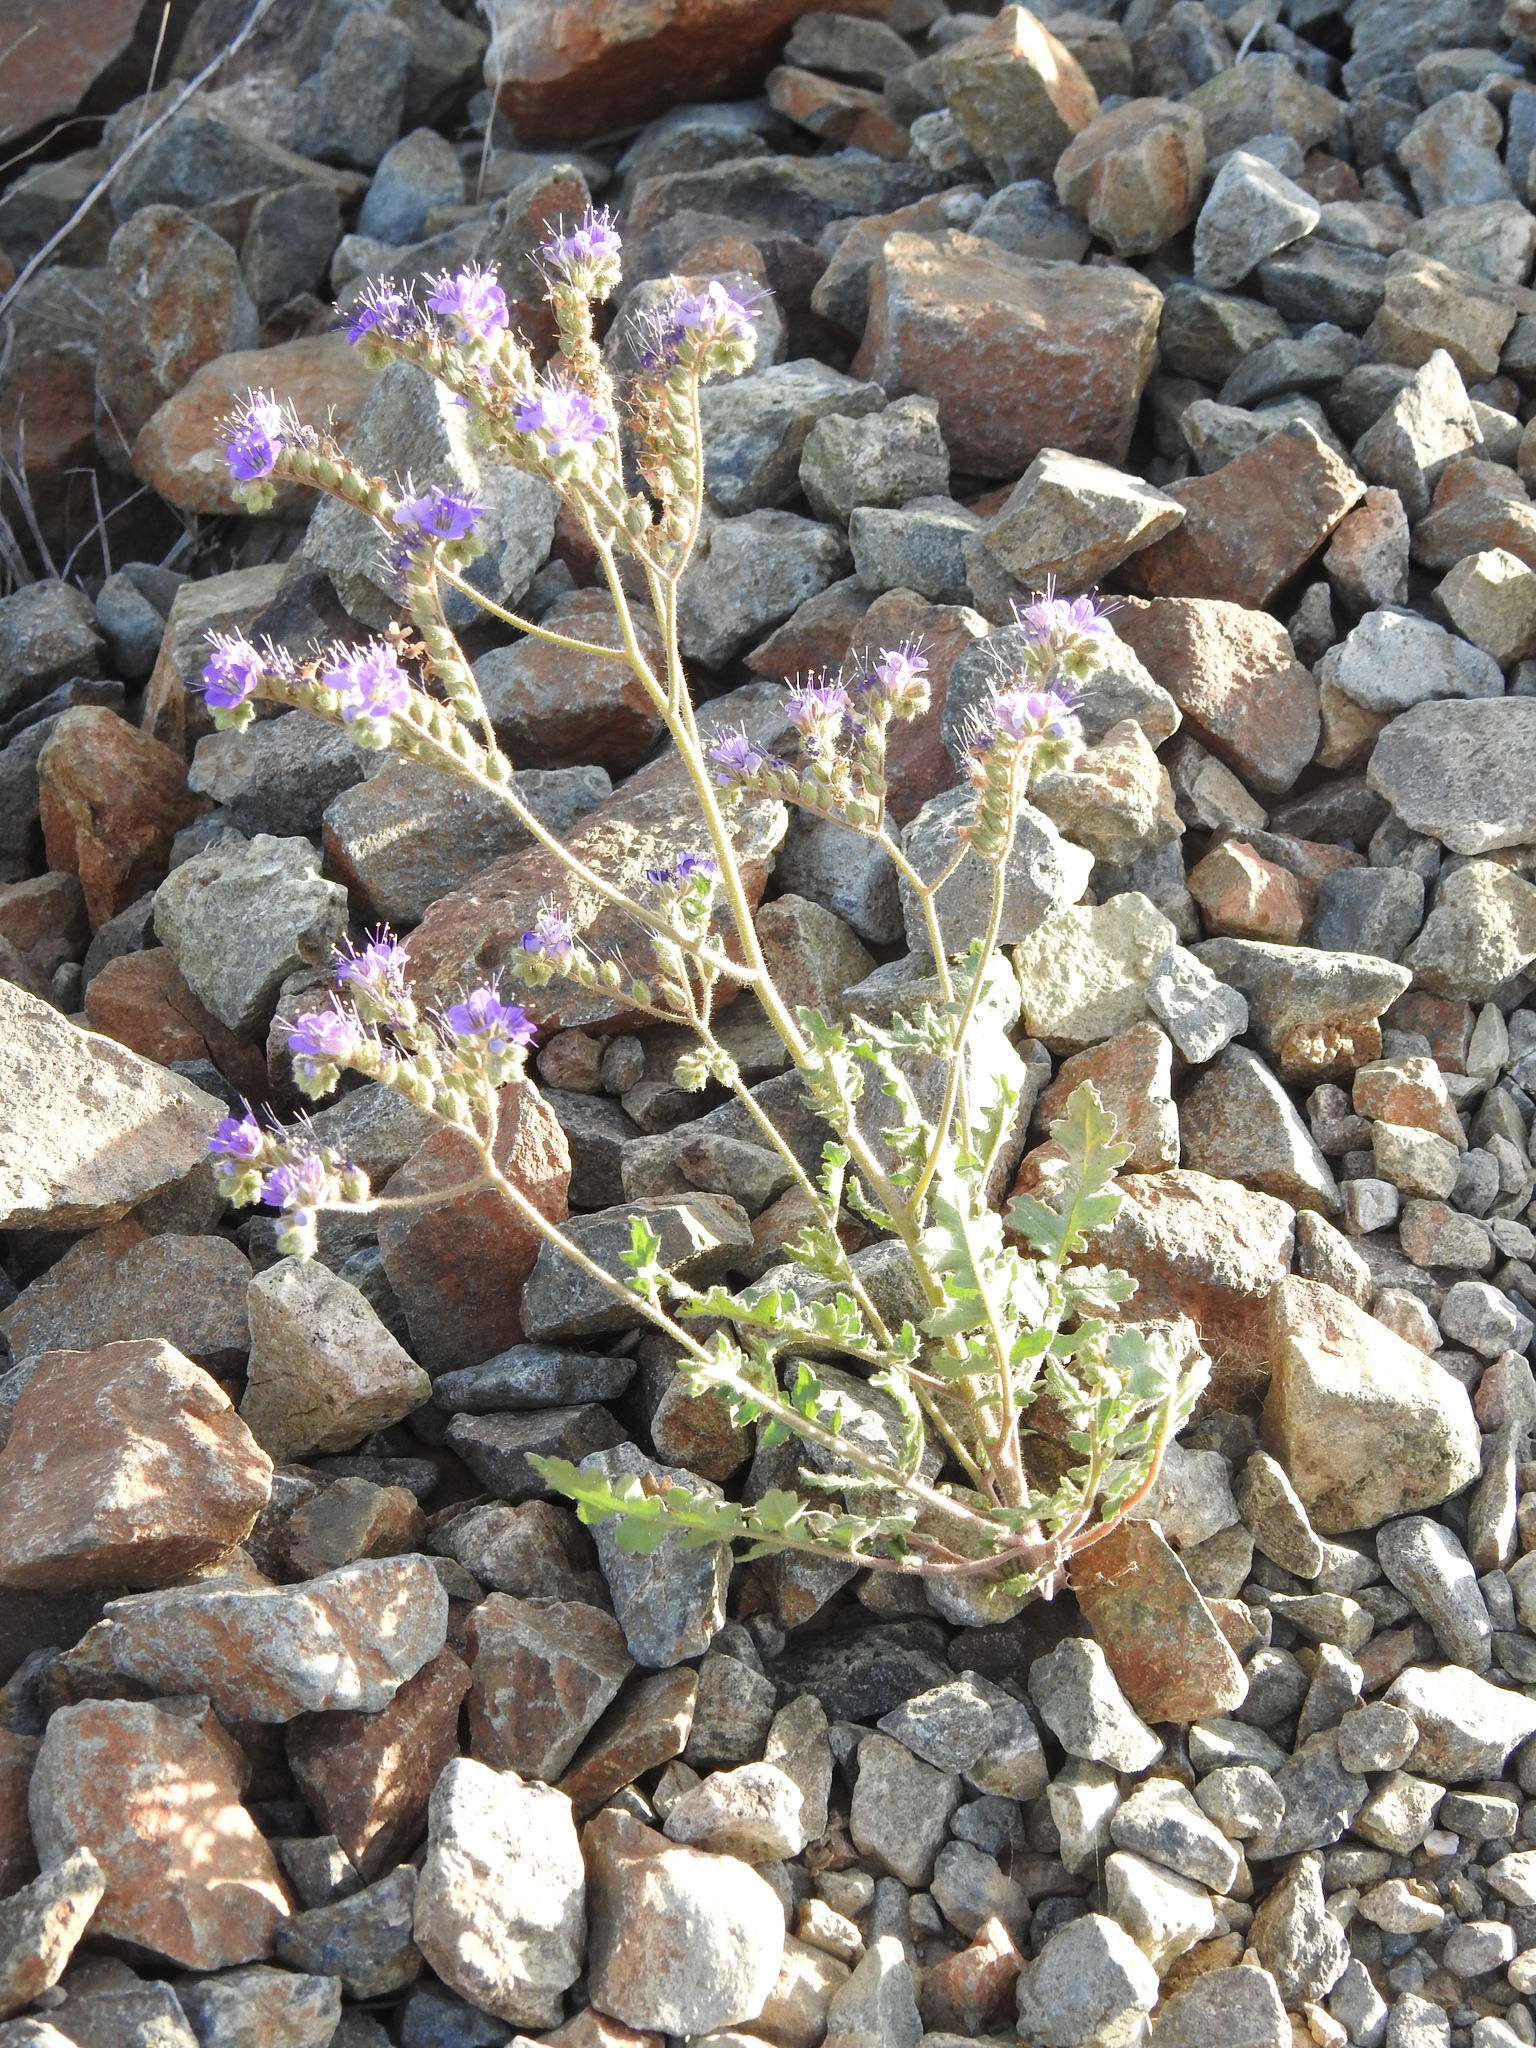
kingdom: Plantae
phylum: Tracheophyta
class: Magnoliopsida
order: Boraginales
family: Hydrophyllaceae
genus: Phacelia
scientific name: Phacelia crenulata
